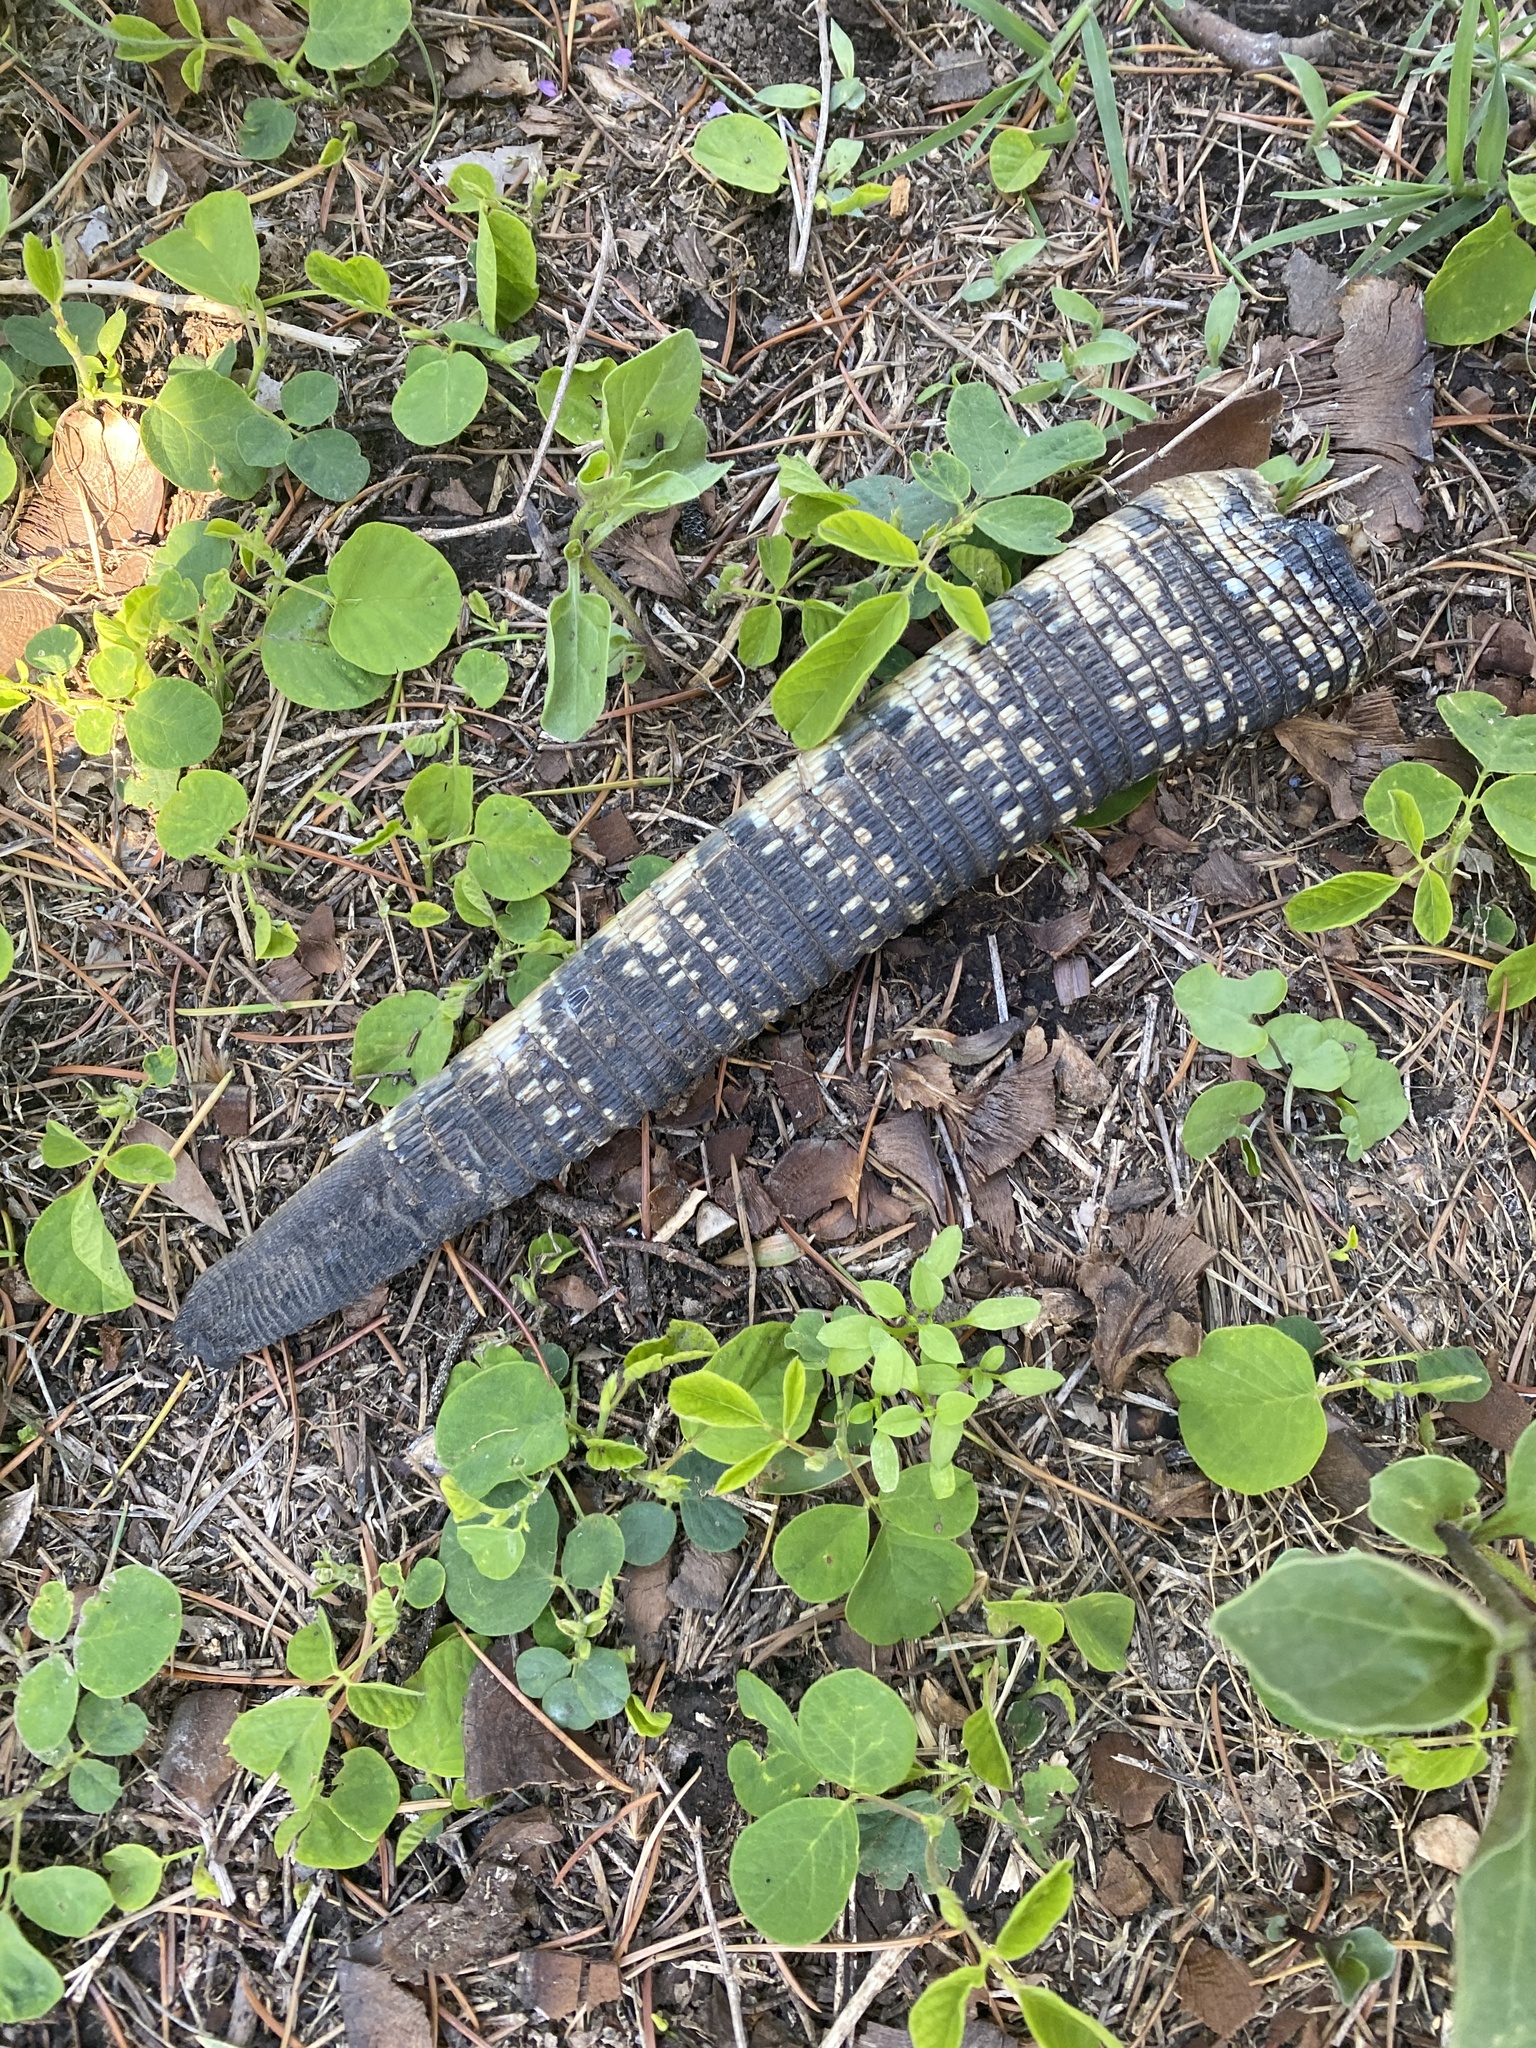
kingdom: Animalia
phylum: Chordata
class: Squamata
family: Teiidae
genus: Salvator
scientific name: Salvator merianae
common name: Argentine black and white tegu
